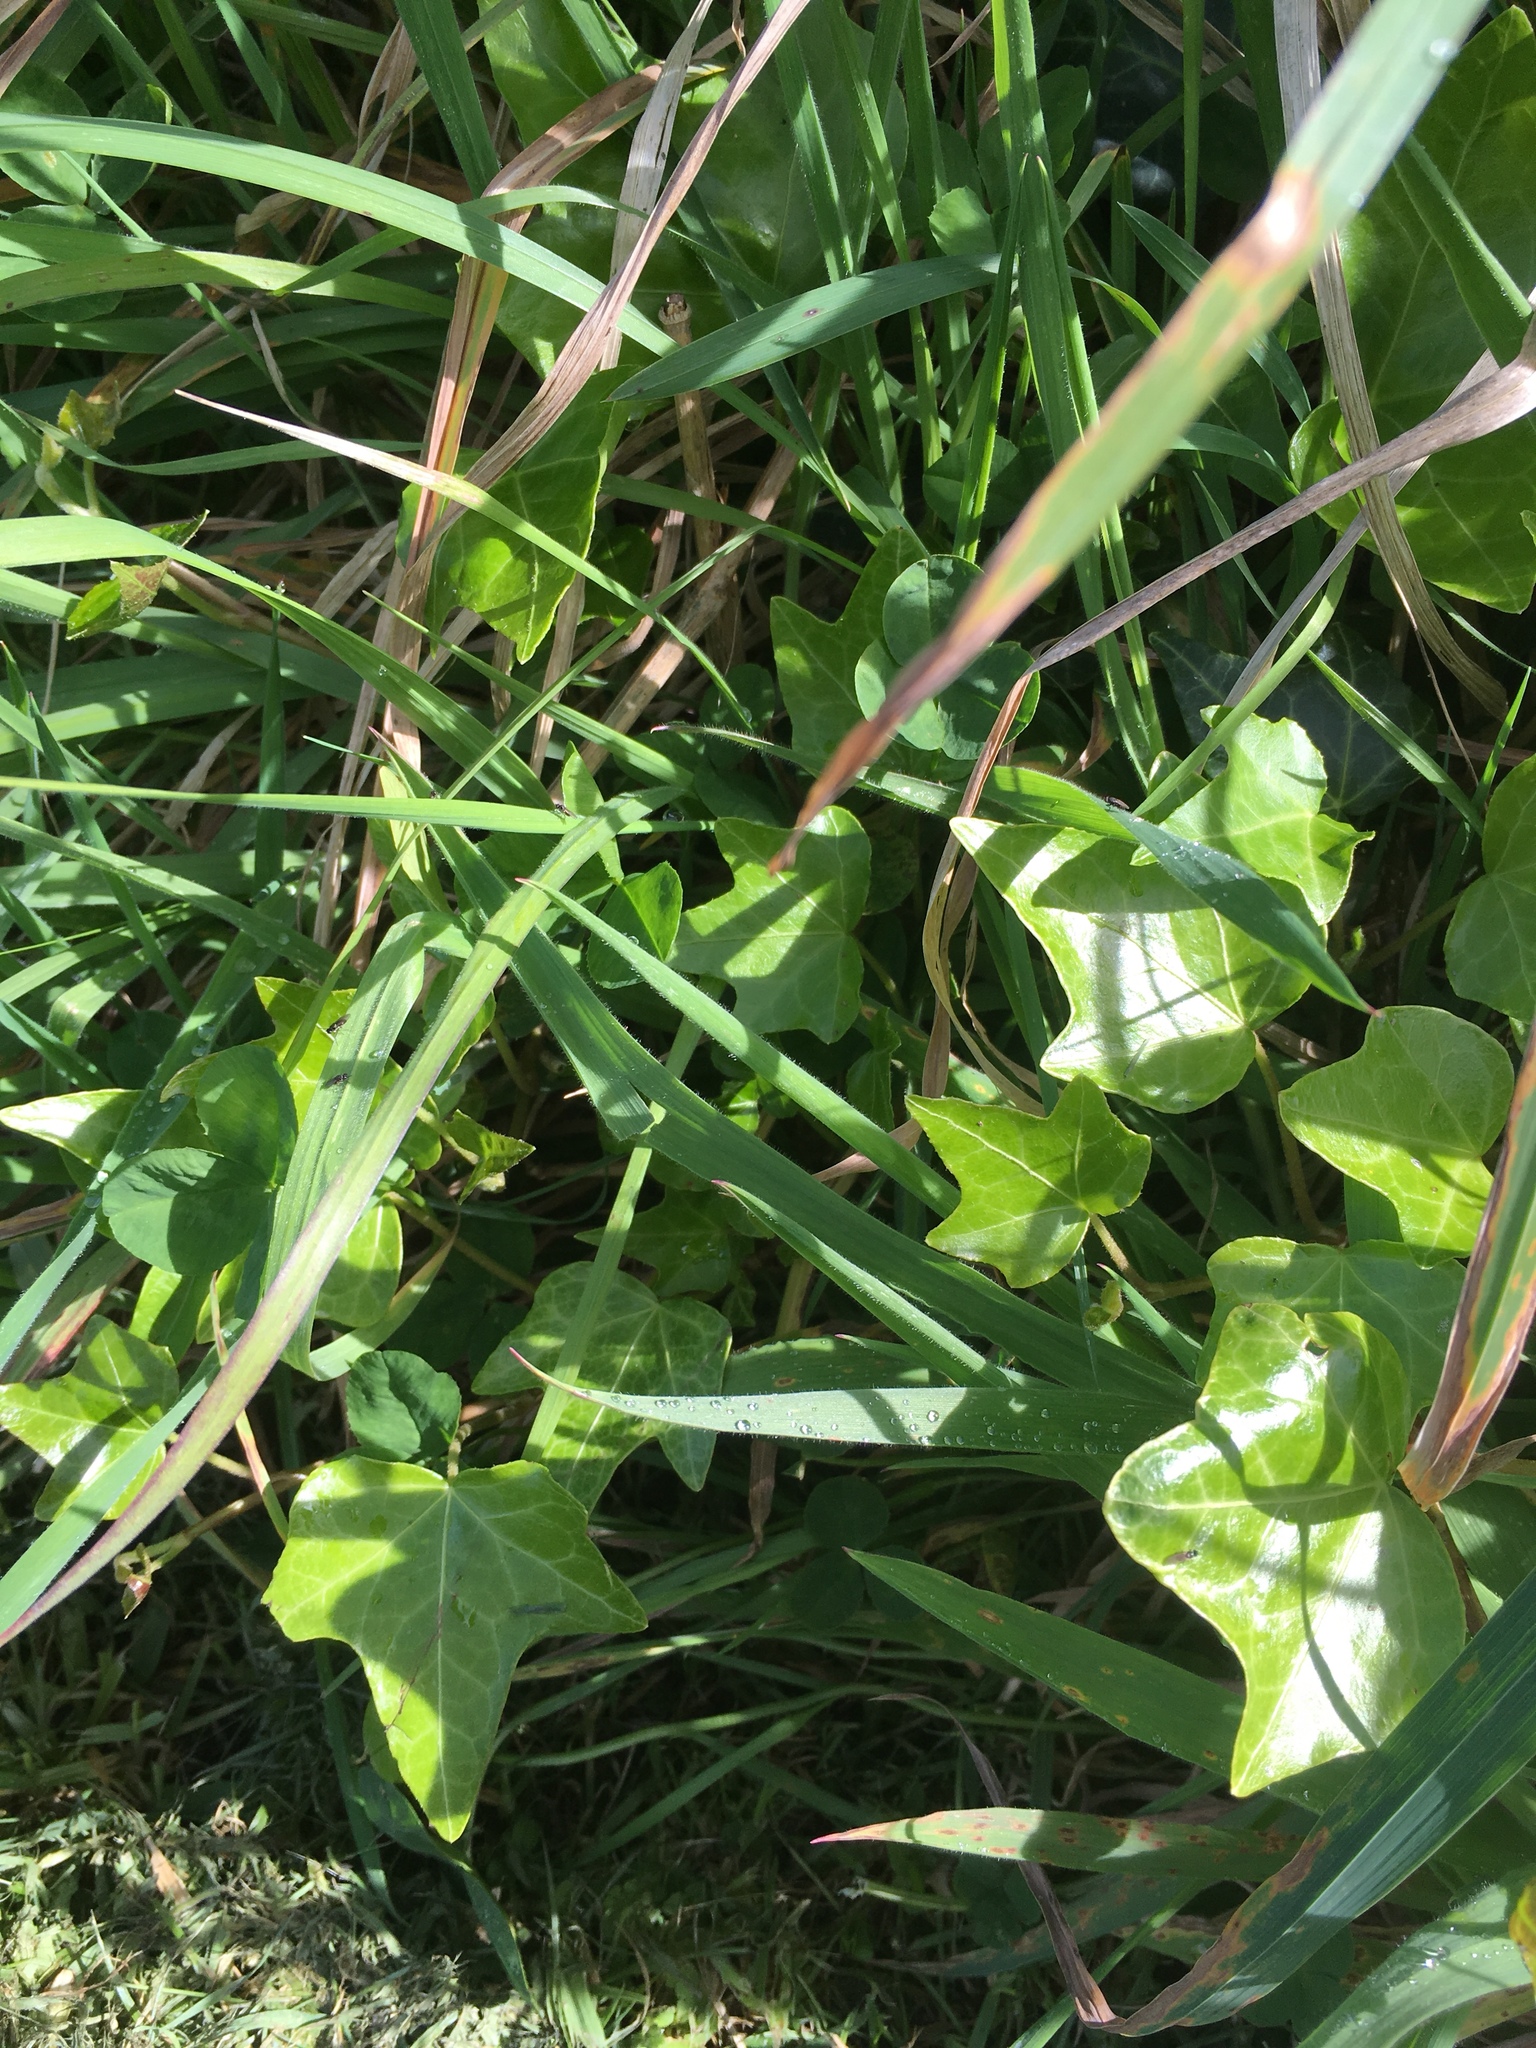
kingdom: Plantae
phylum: Tracheophyta
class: Magnoliopsida
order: Apiales
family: Araliaceae
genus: Hedera
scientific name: Hedera helix
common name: Ivy
